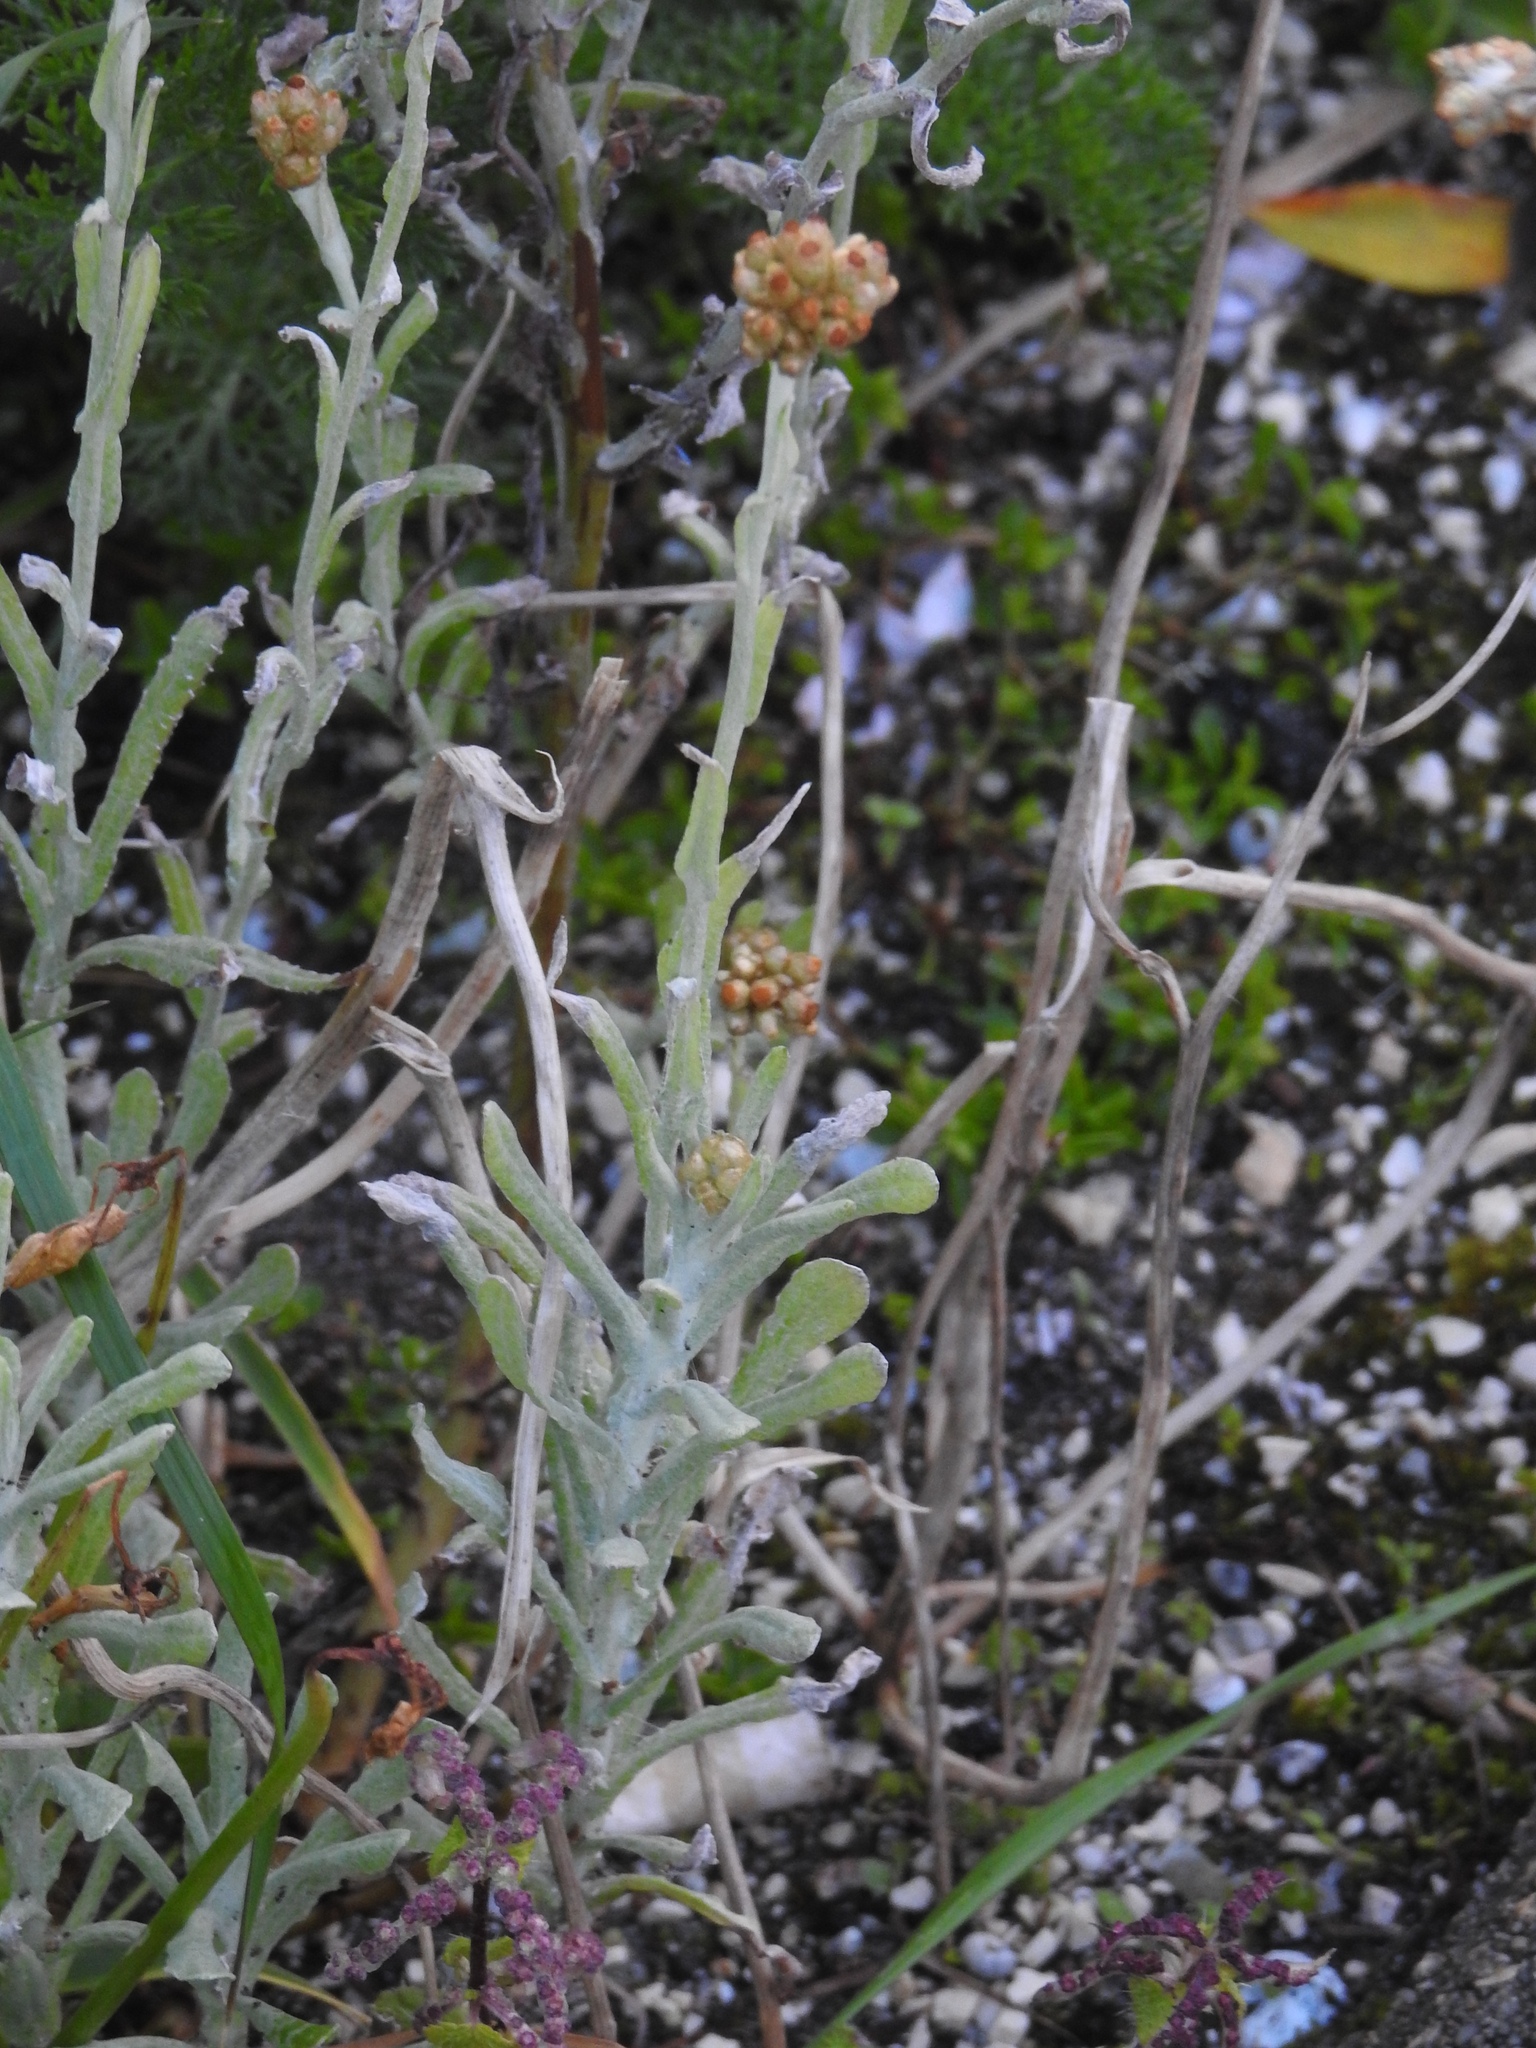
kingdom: Plantae
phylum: Tracheophyta
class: Magnoliopsida
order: Asterales
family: Asteraceae
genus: Helichrysum
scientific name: Helichrysum luteoalbum
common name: Daisy
